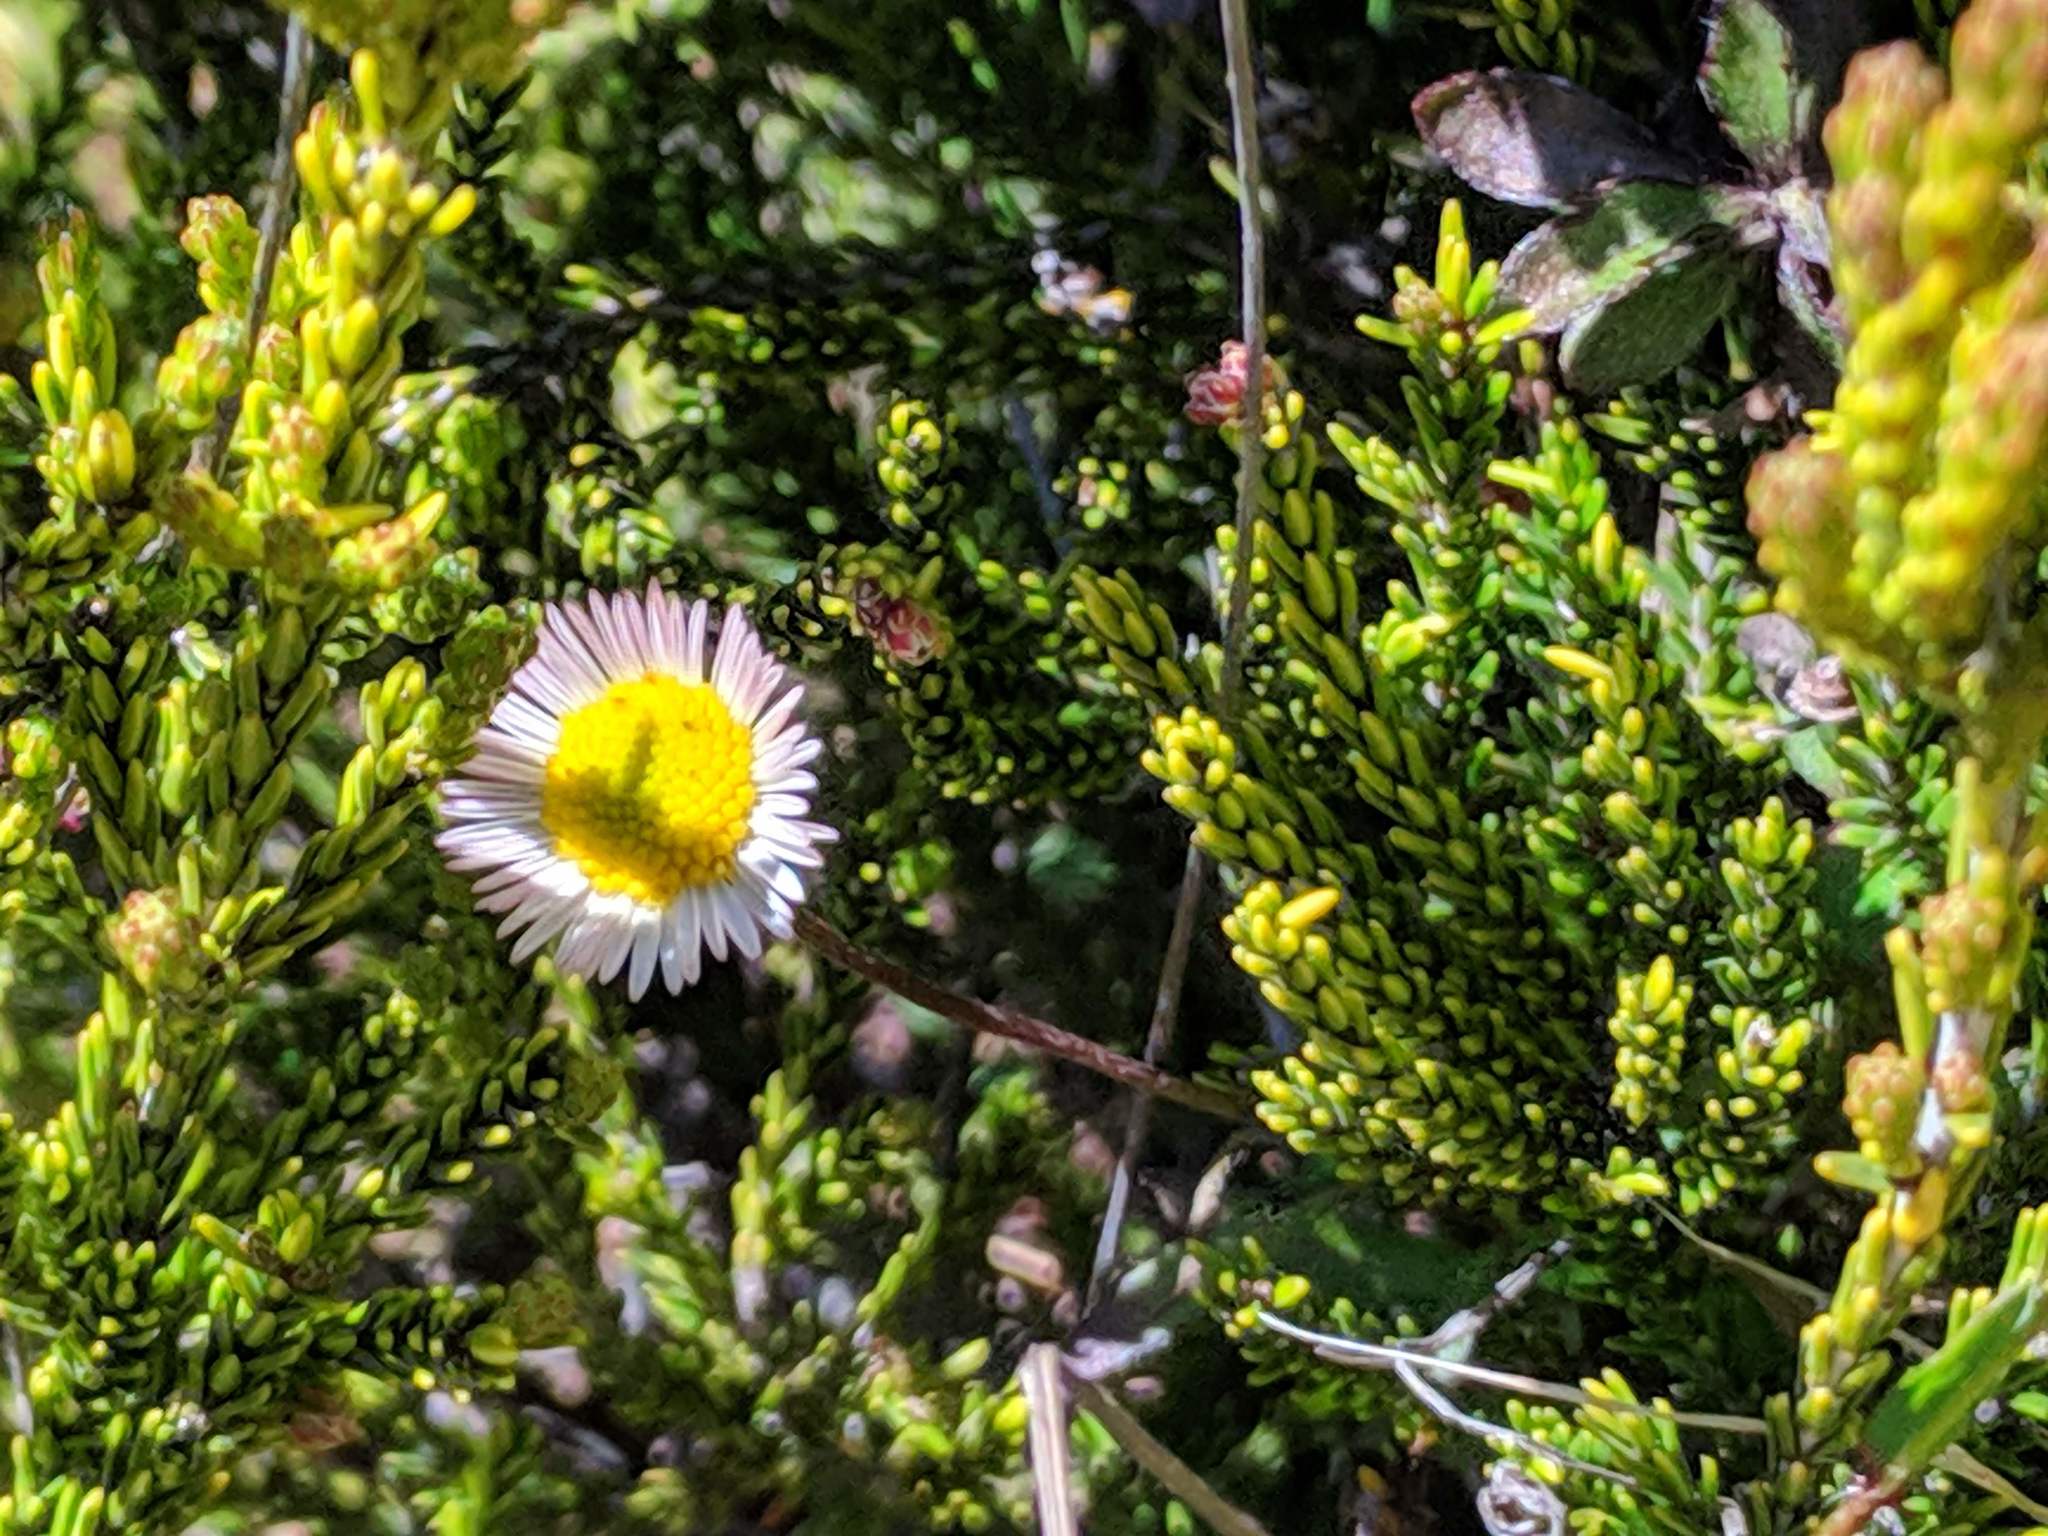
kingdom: Plantae
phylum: Tracheophyta
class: Magnoliopsida
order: Asterales
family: Asteraceae
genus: Erigeron
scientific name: Erigeron karvinskianus
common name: Mexican fleabane
